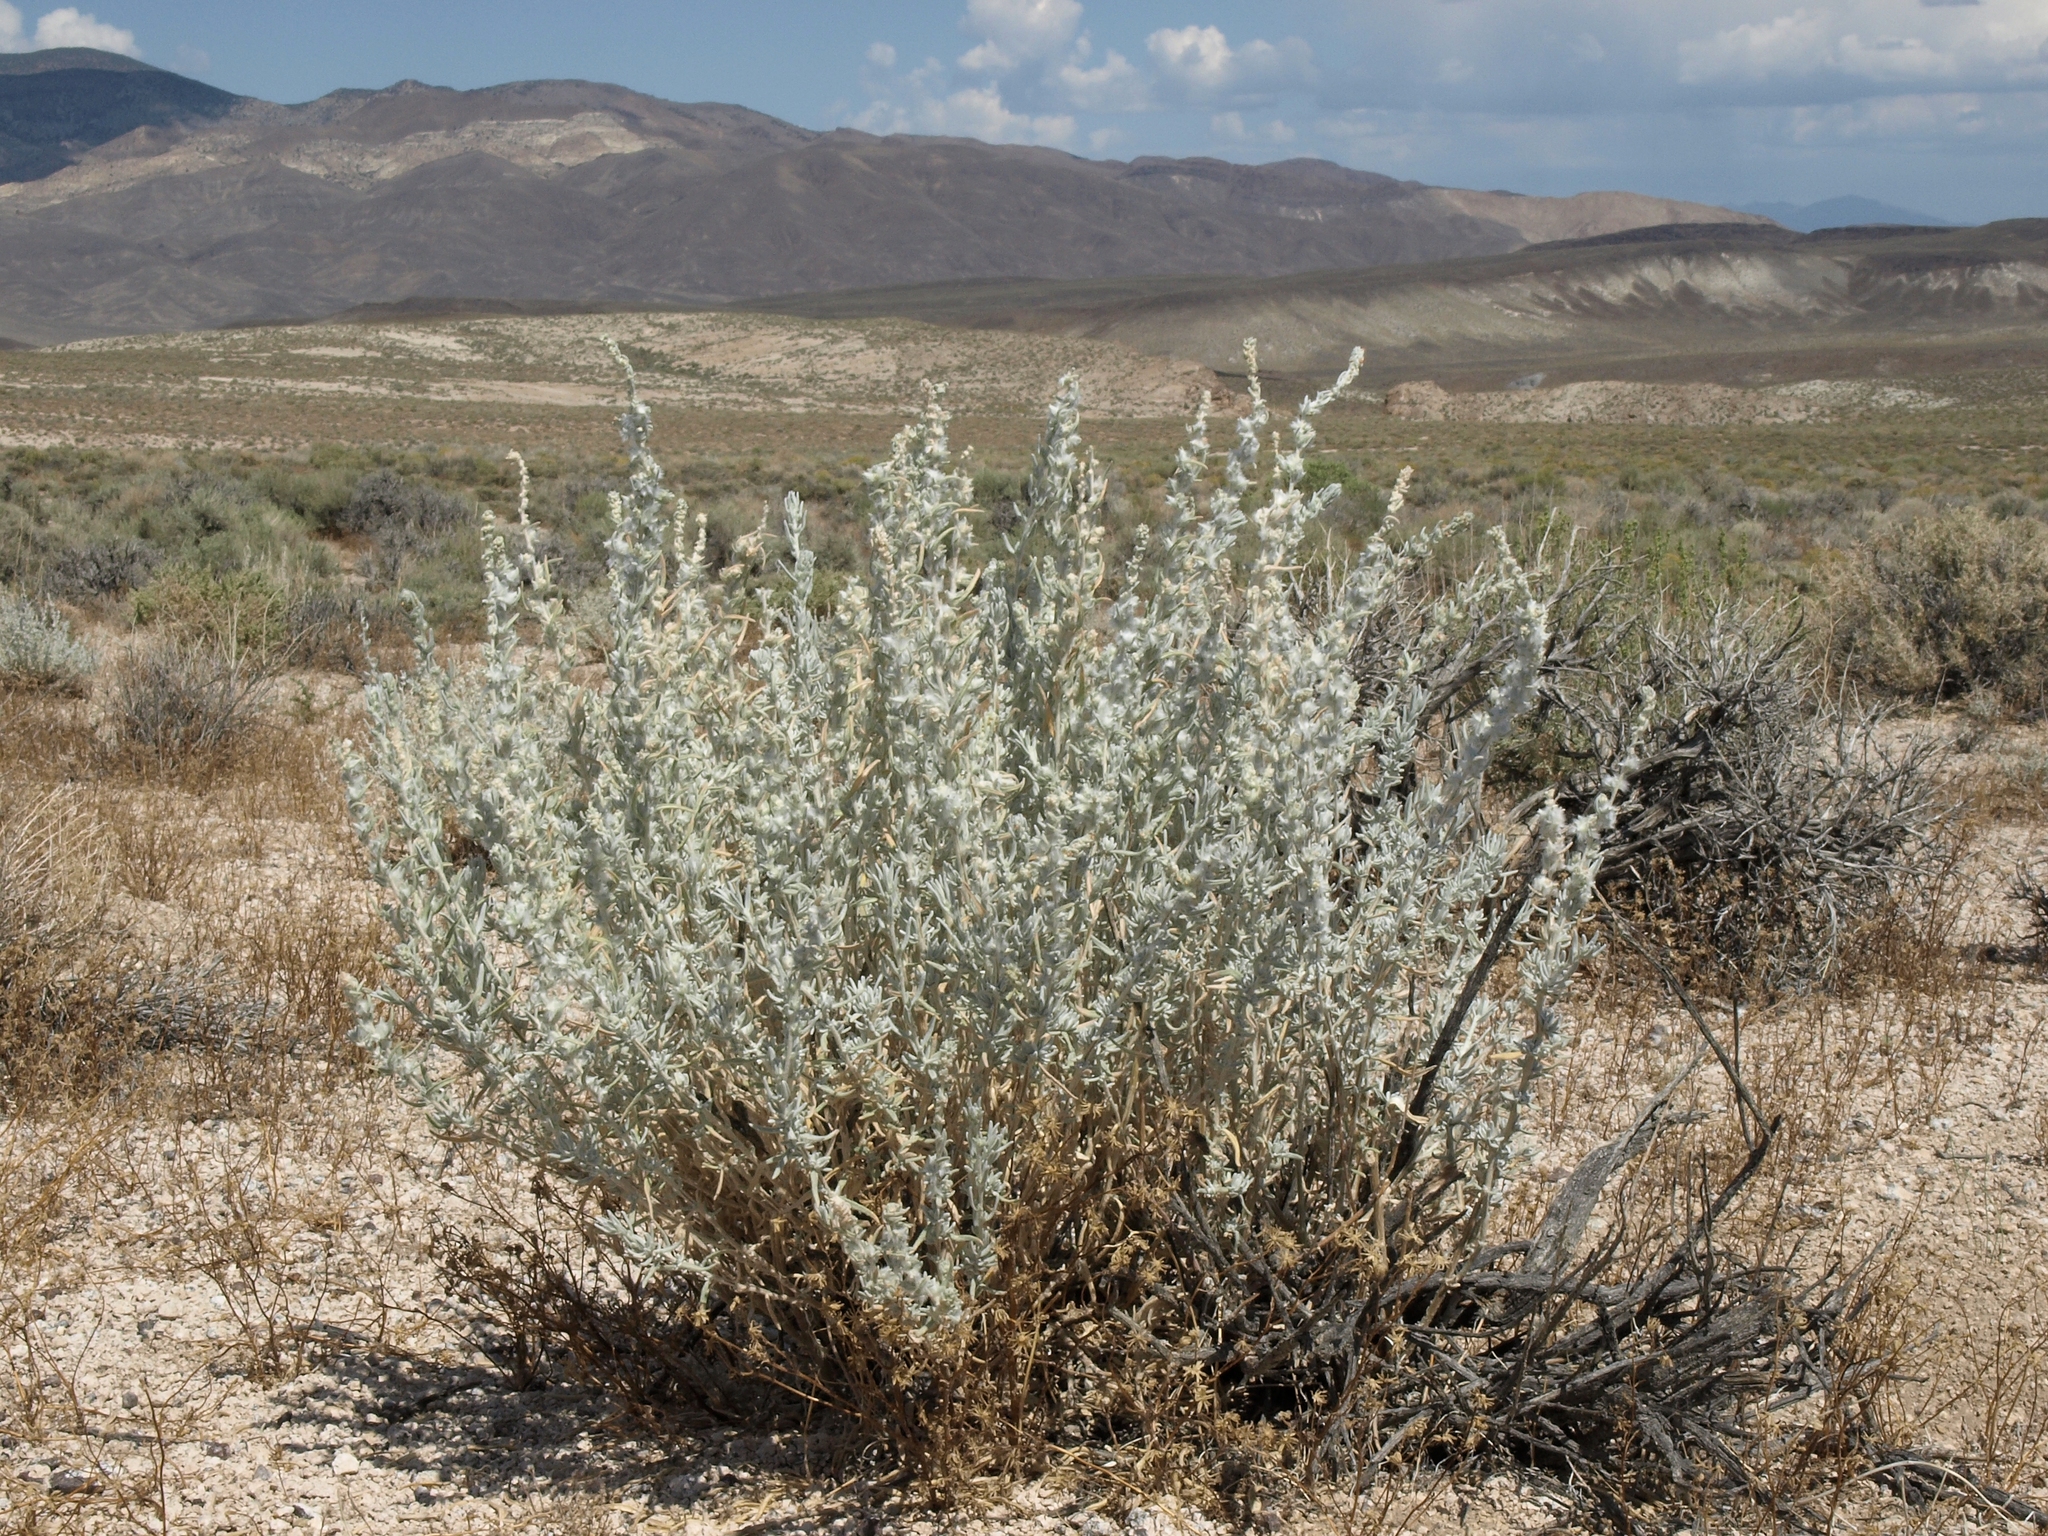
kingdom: Plantae
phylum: Tracheophyta
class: Magnoliopsida
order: Caryophyllales
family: Amaranthaceae
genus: Krascheninnikovia
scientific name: Krascheninnikovia lanata
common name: Winterfat
